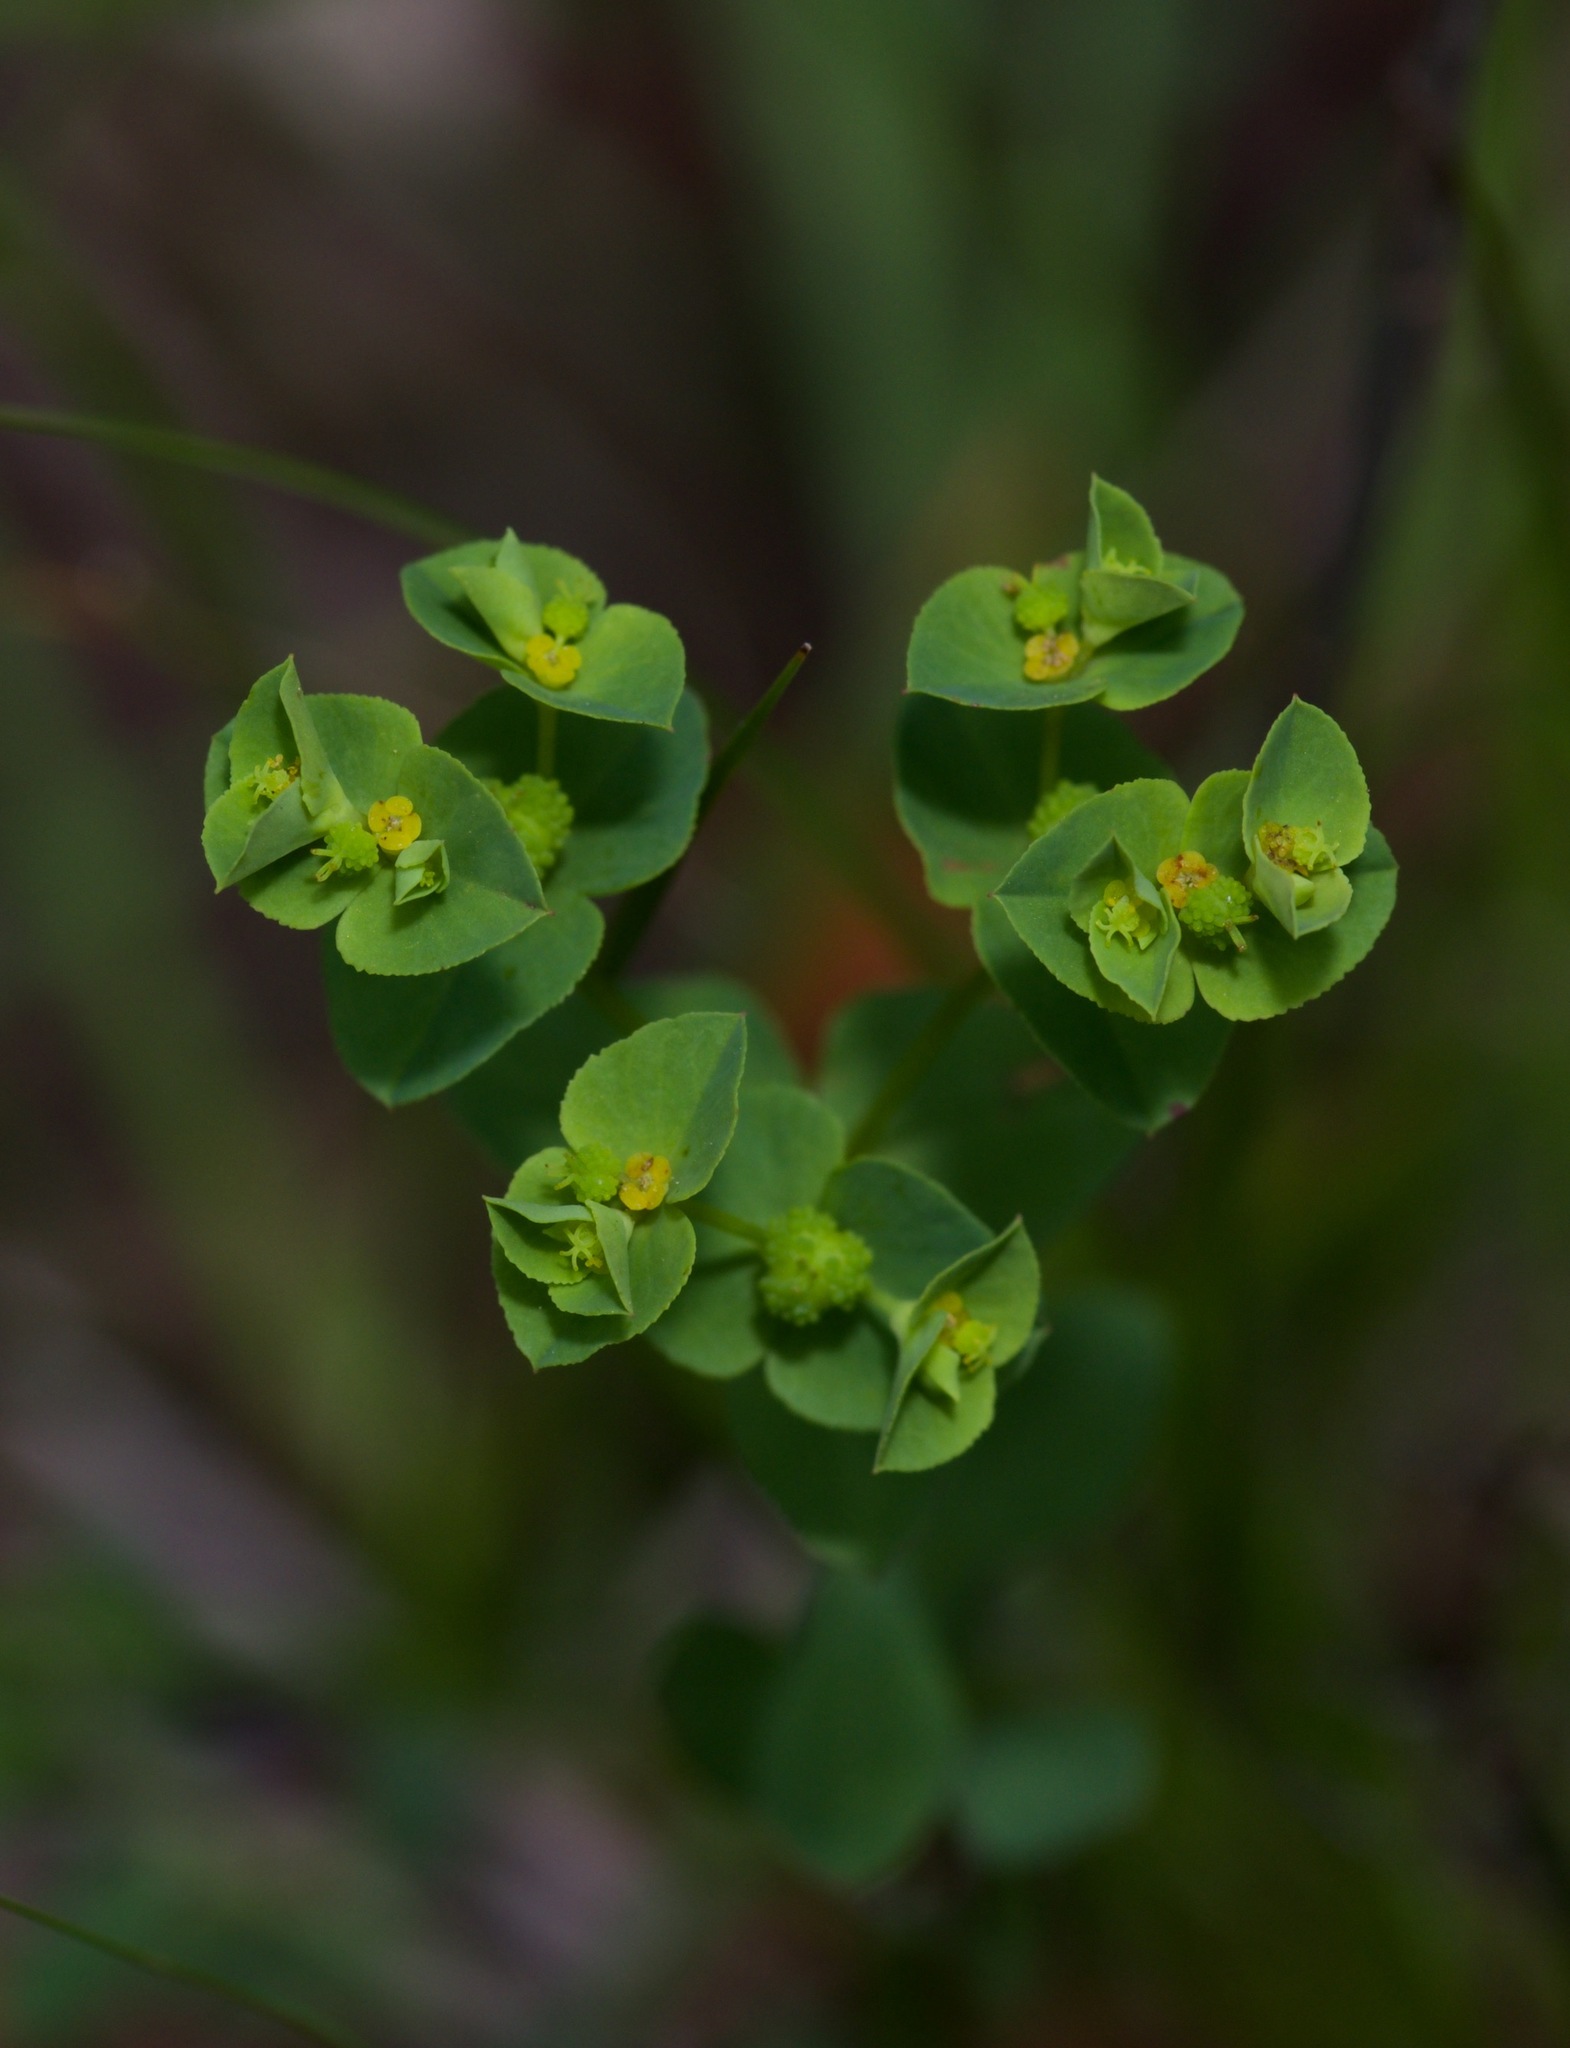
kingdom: Plantae
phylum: Tracheophyta
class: Magnoliopsida
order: Malpighiales
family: Euphorbiaceae
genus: Euphorbia
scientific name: Euphorbia spathulata
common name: Blunt spurge
